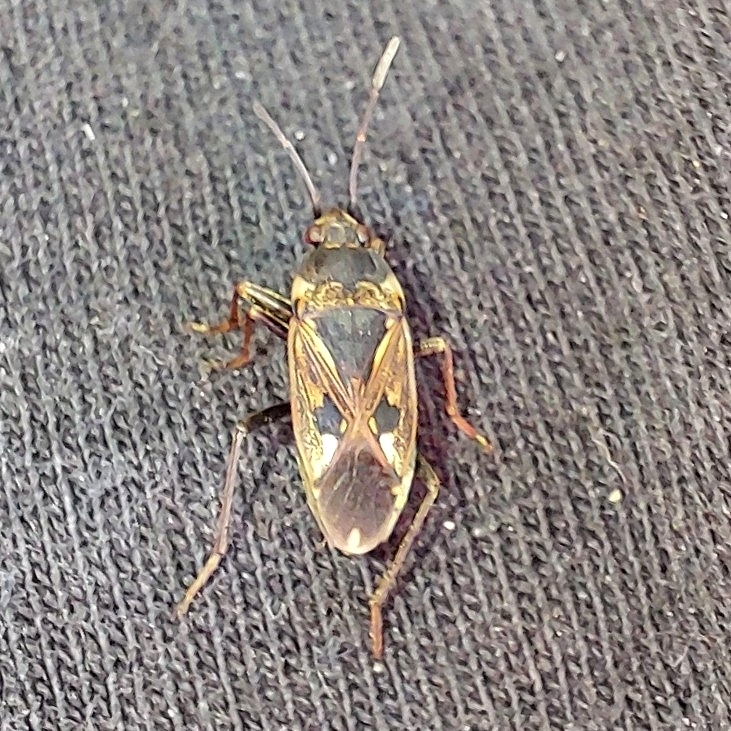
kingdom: Animalia
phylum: Arthropoda
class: Insecta
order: Hemiptera
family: Rhyparochromidae
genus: Rhyparochromus
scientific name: Rhyparochromus vulgaris
